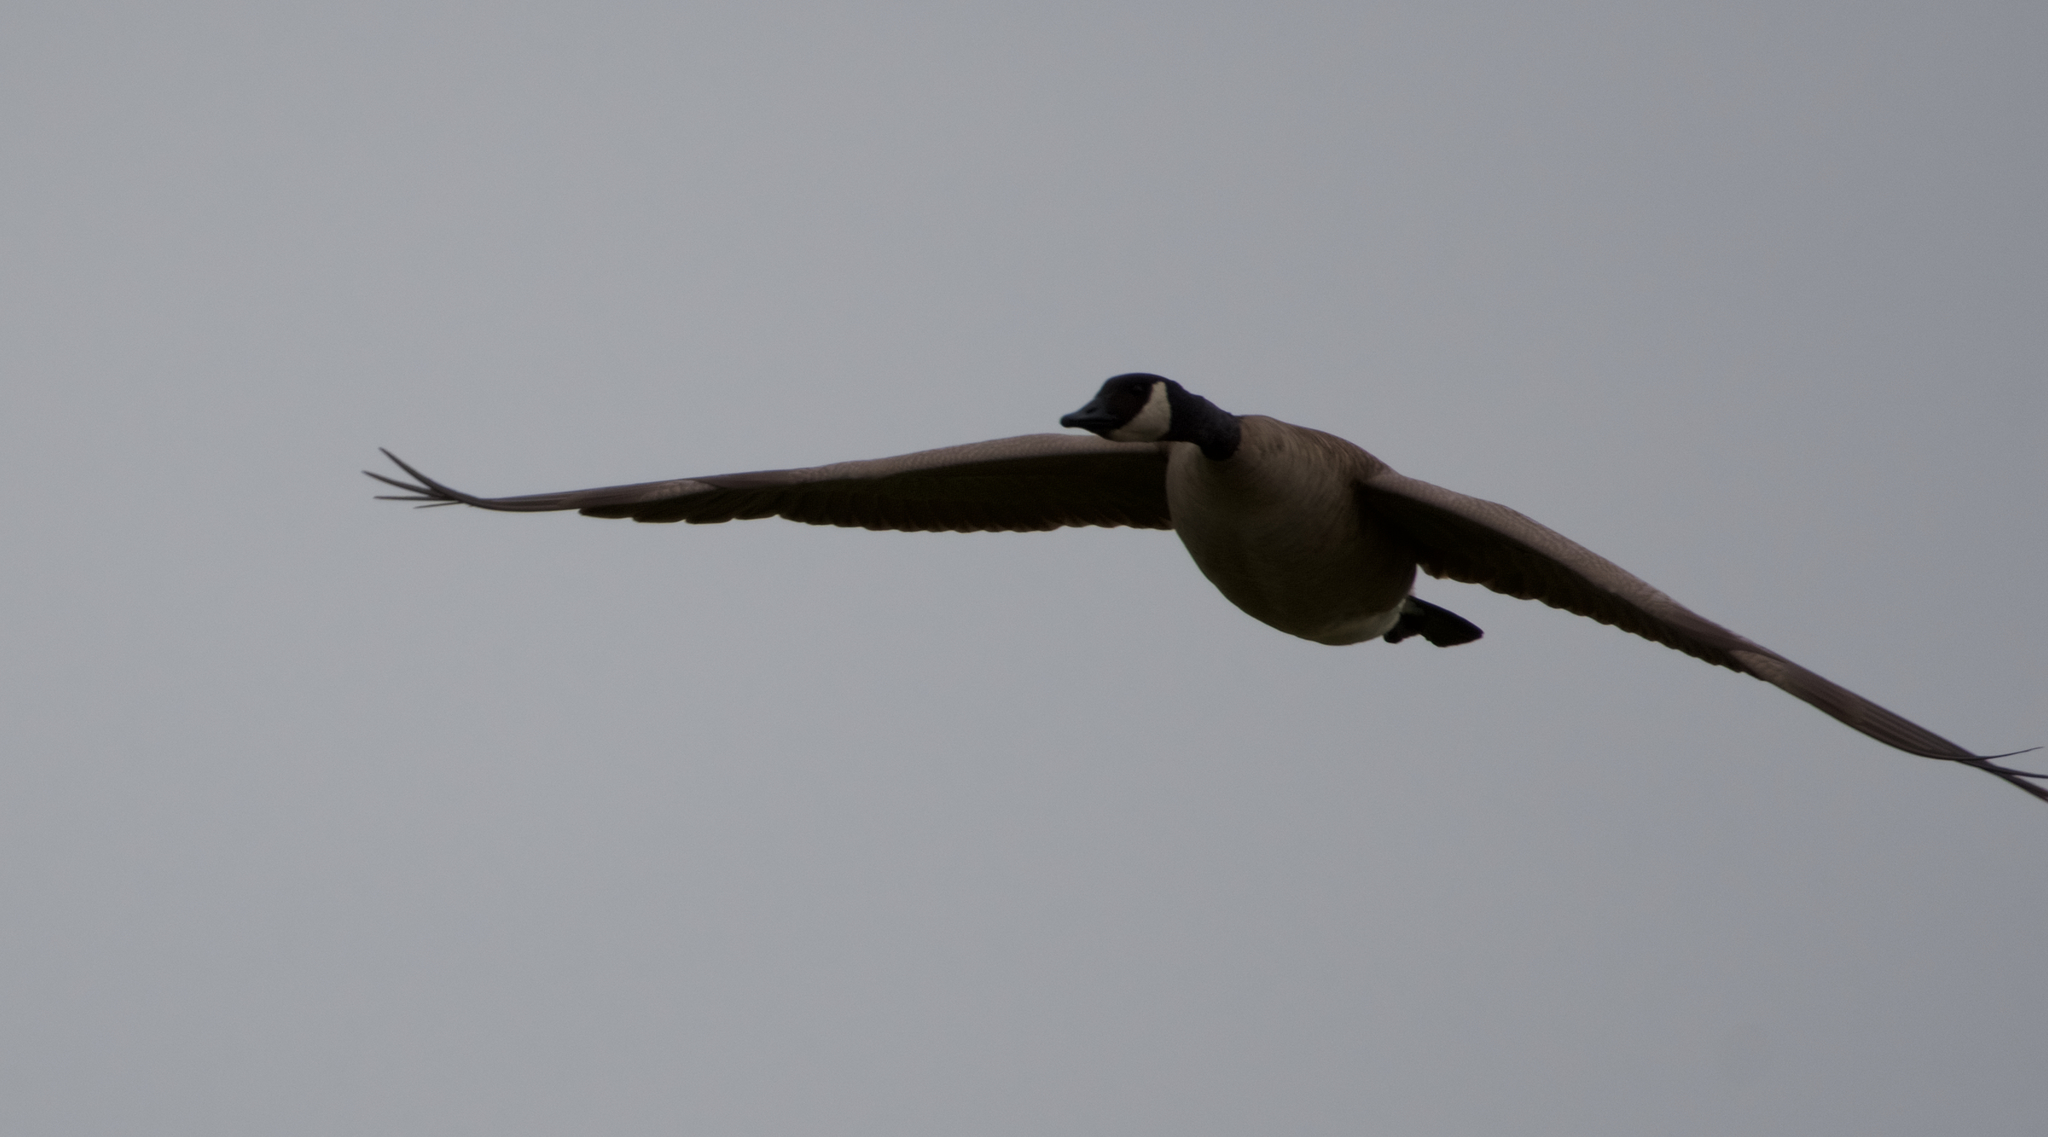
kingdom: Animalia
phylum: Chordata
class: Aves
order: Anseriformes
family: Anatidae
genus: Branta
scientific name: Branta canadensis
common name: Canada goose
